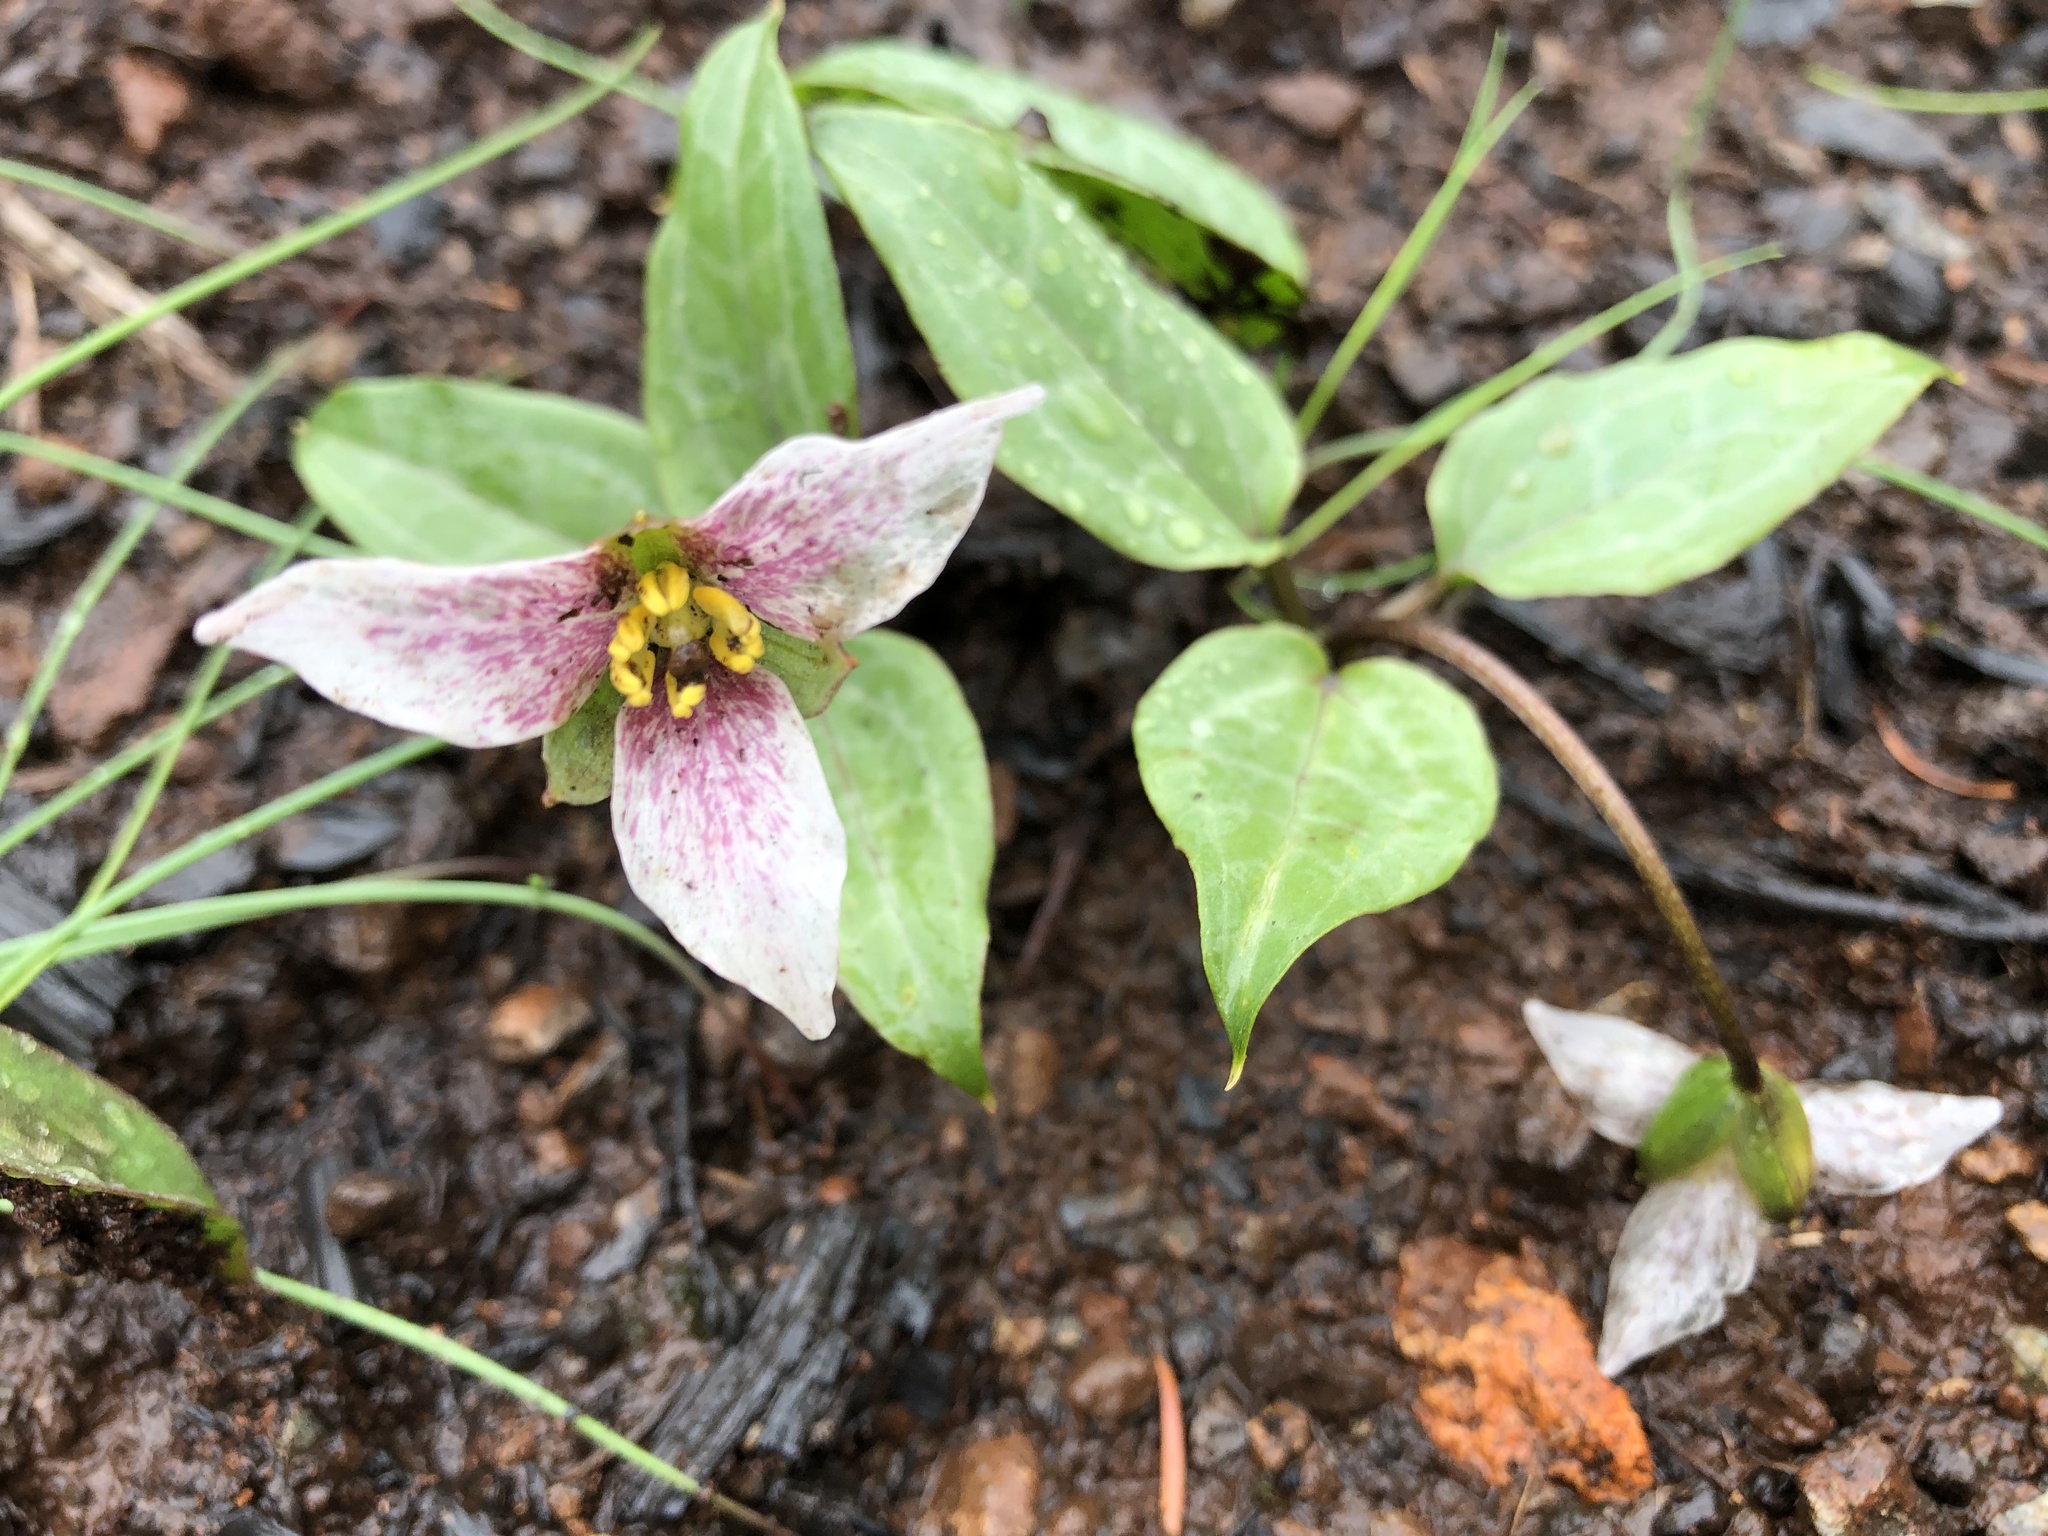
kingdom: Plantae
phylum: Tracheophyta
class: Liliopsida
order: Liliales
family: Melanthiaceae
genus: Pseudotrillium
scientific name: Pseudotrillium rivale
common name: Brook wakerobin
